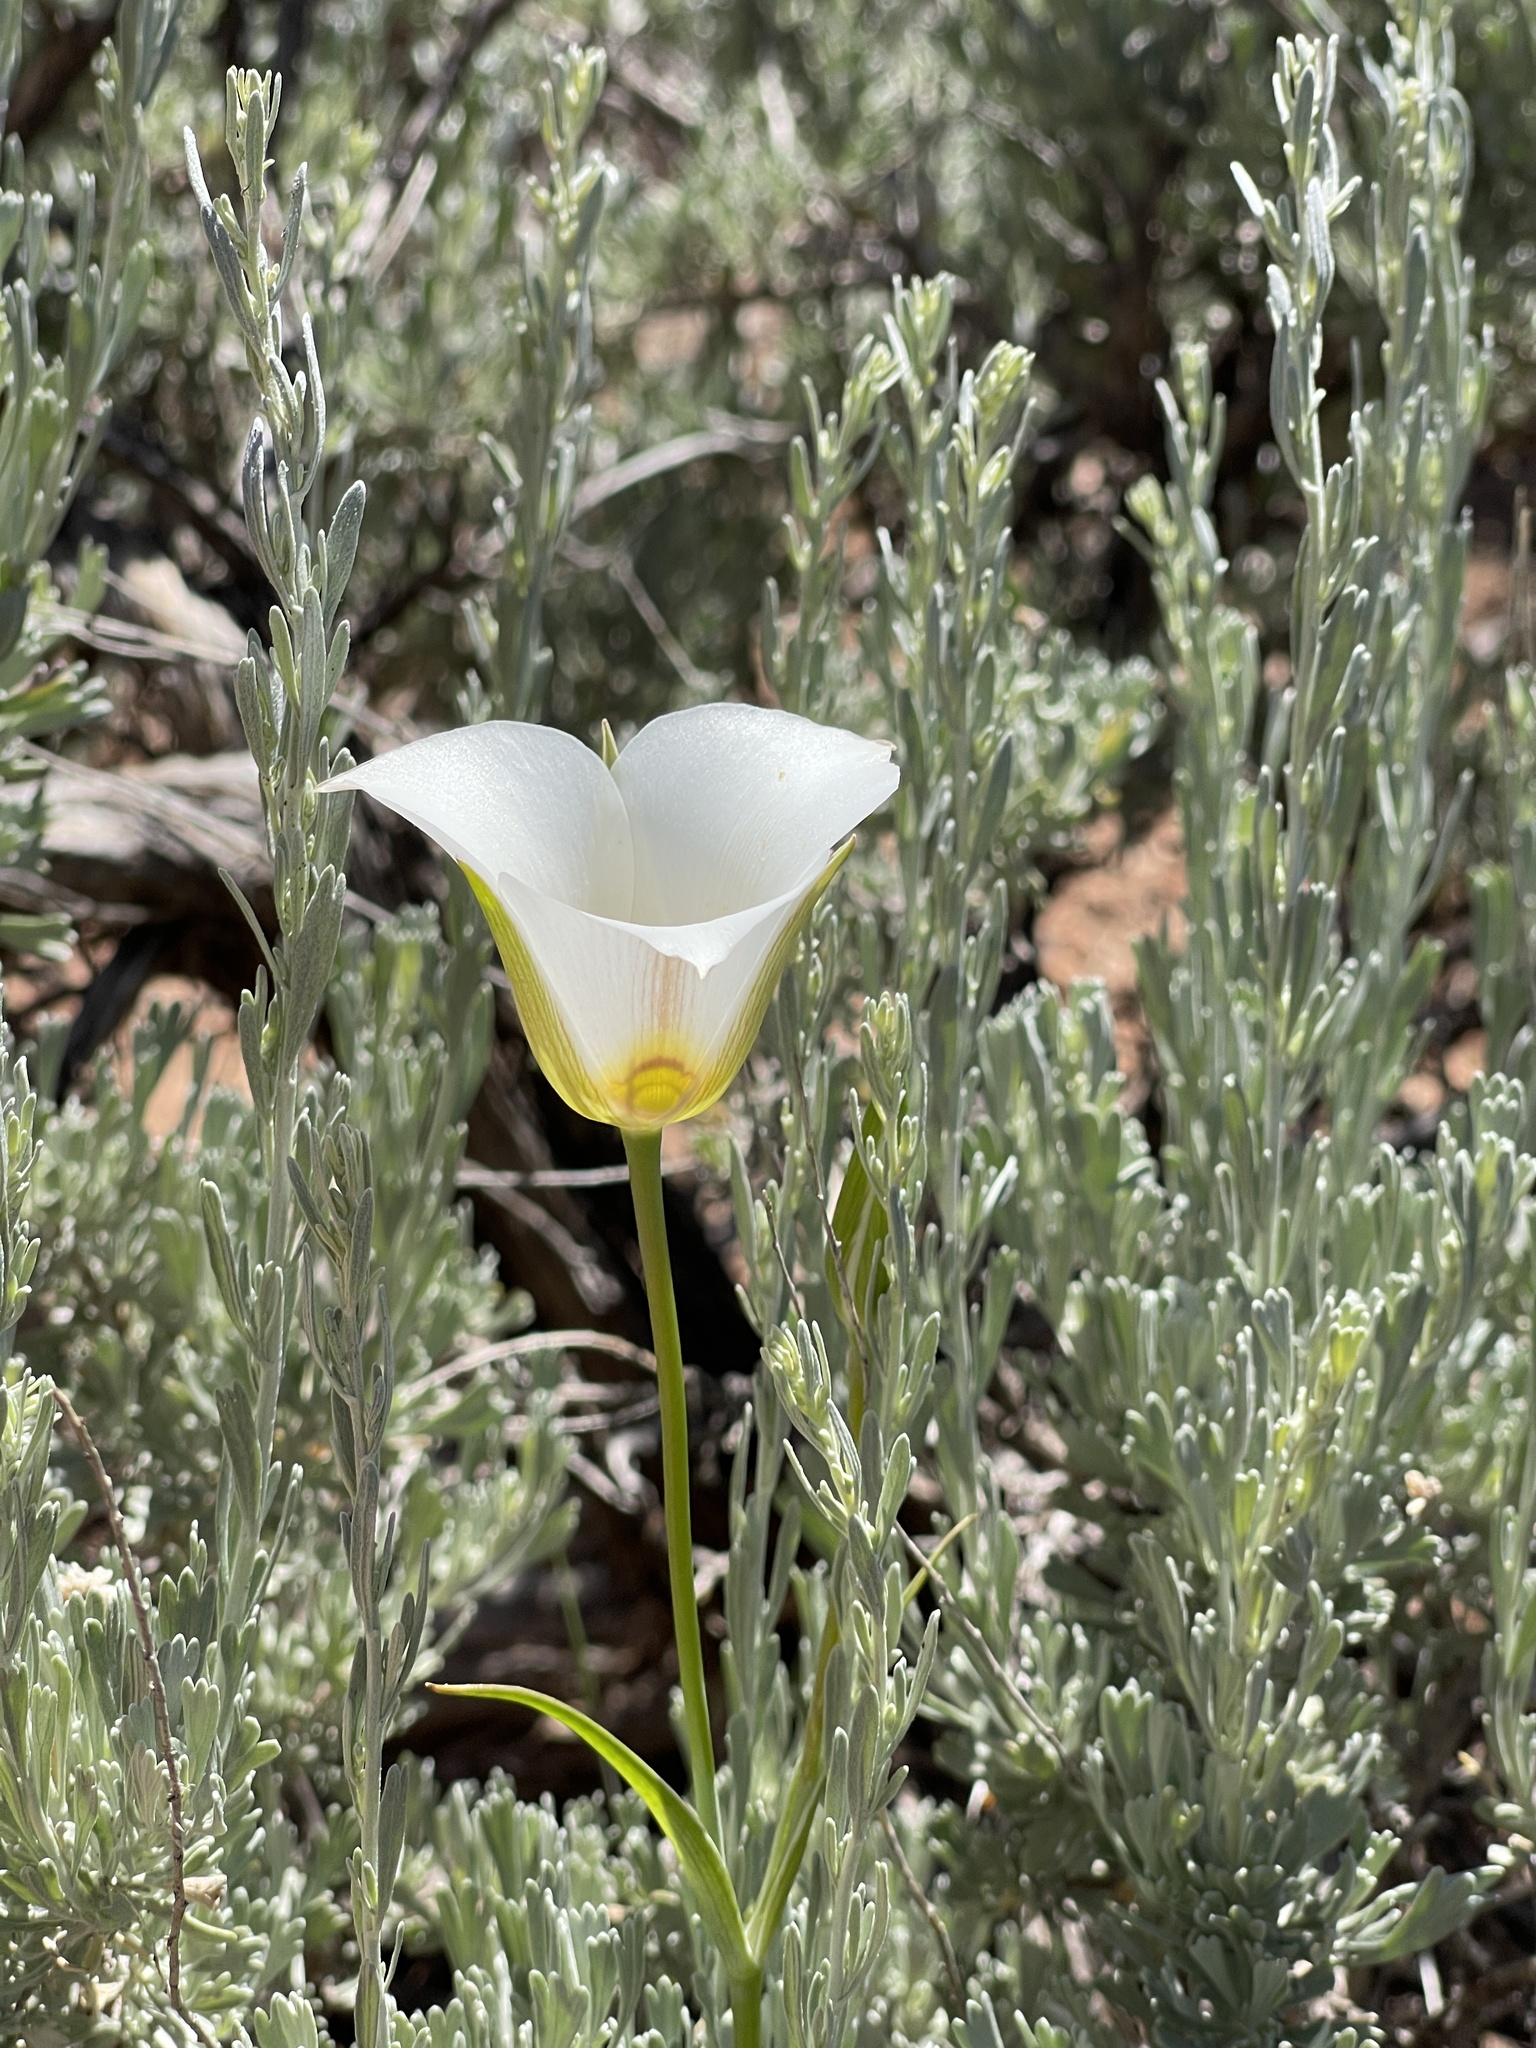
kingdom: Plantae
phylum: Tracheophyta
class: Liliopsida
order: Liliales
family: Liliaceae
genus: Calochortus
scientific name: Calochortus nuttallii
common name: Sego-lily
